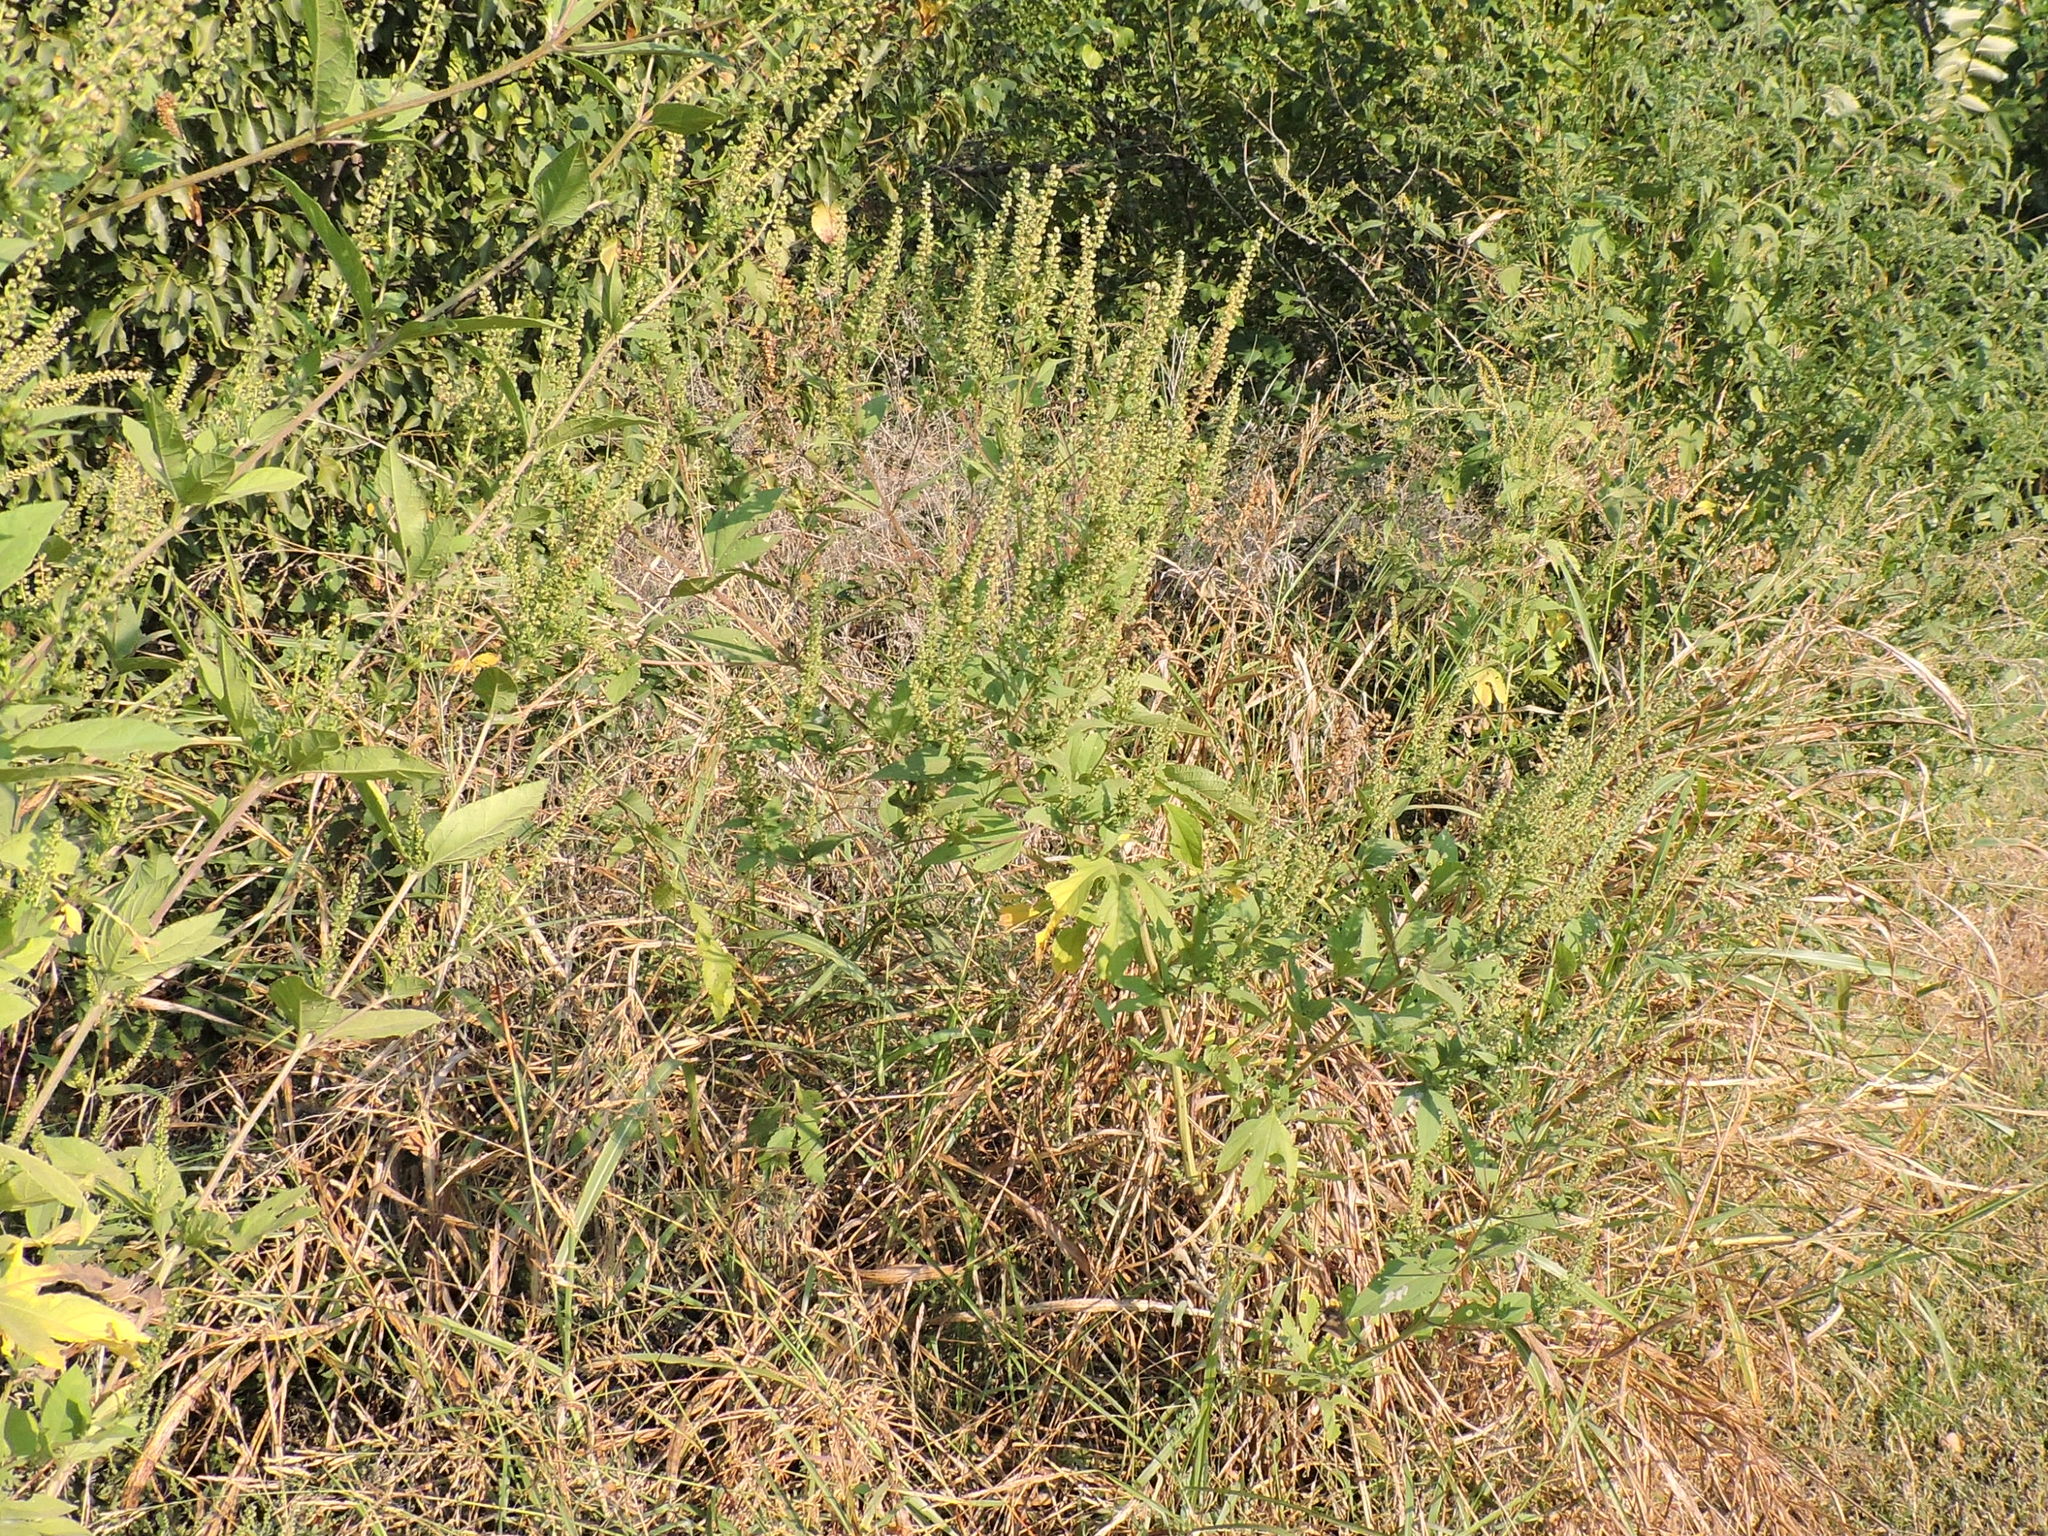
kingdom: Plantae
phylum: Tracheophyta
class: Magnoliopsida
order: Asterales
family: Asteraceae
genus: Ambrosia
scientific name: Ambrosia trifida
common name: Giant ragweed
